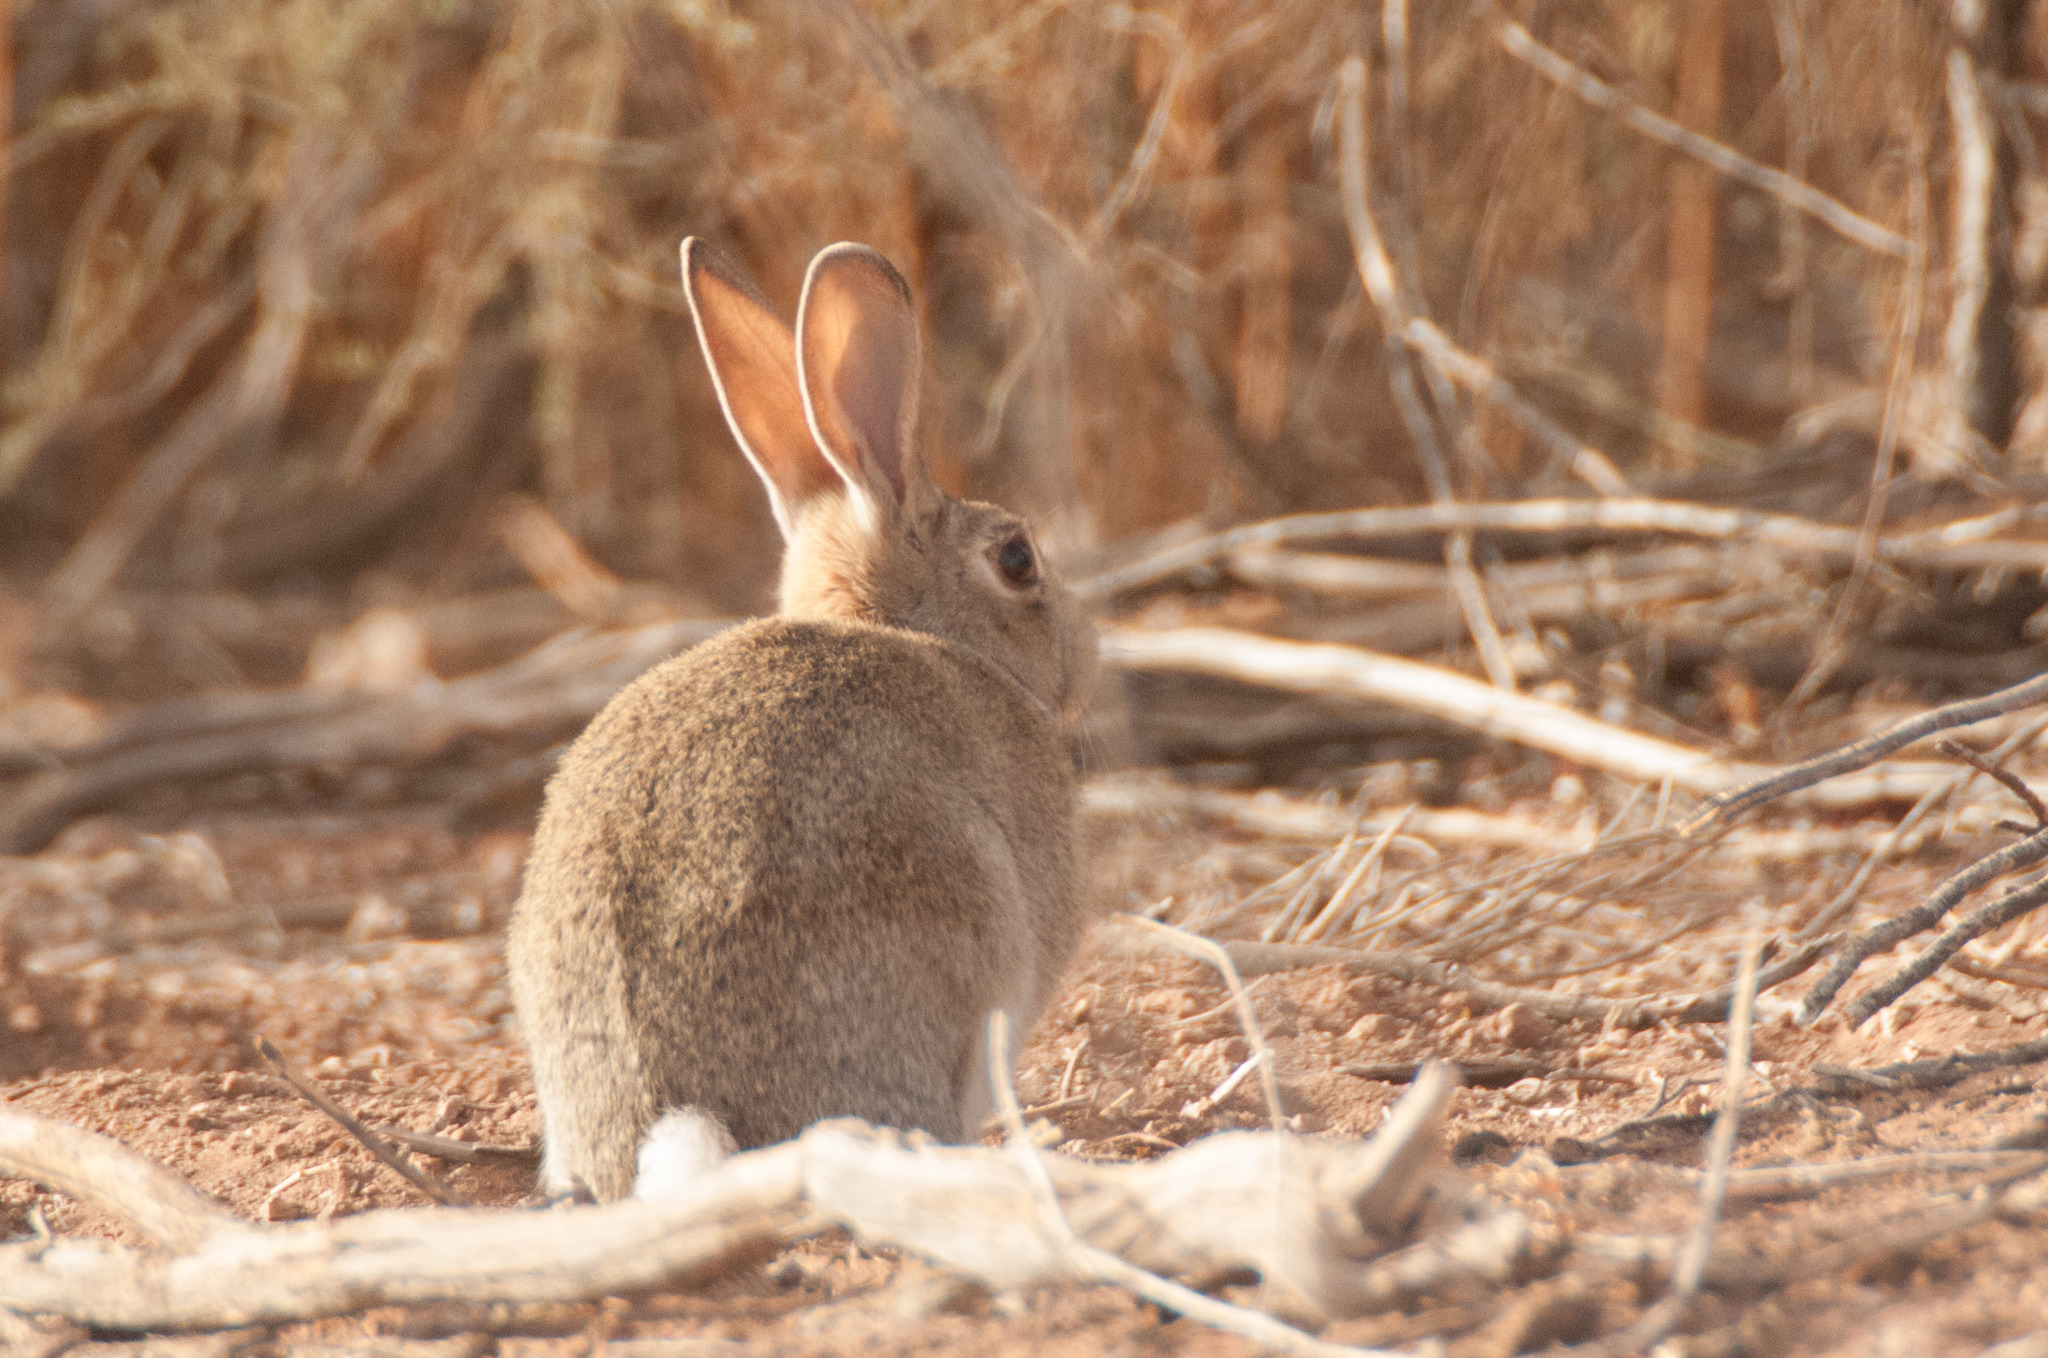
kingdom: Animalia
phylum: Chordata
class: Mammalia
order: Lagomorpha
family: Leporidae
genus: Oryctolagus
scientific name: Oryctolagus cuniculus
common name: European rabbit
